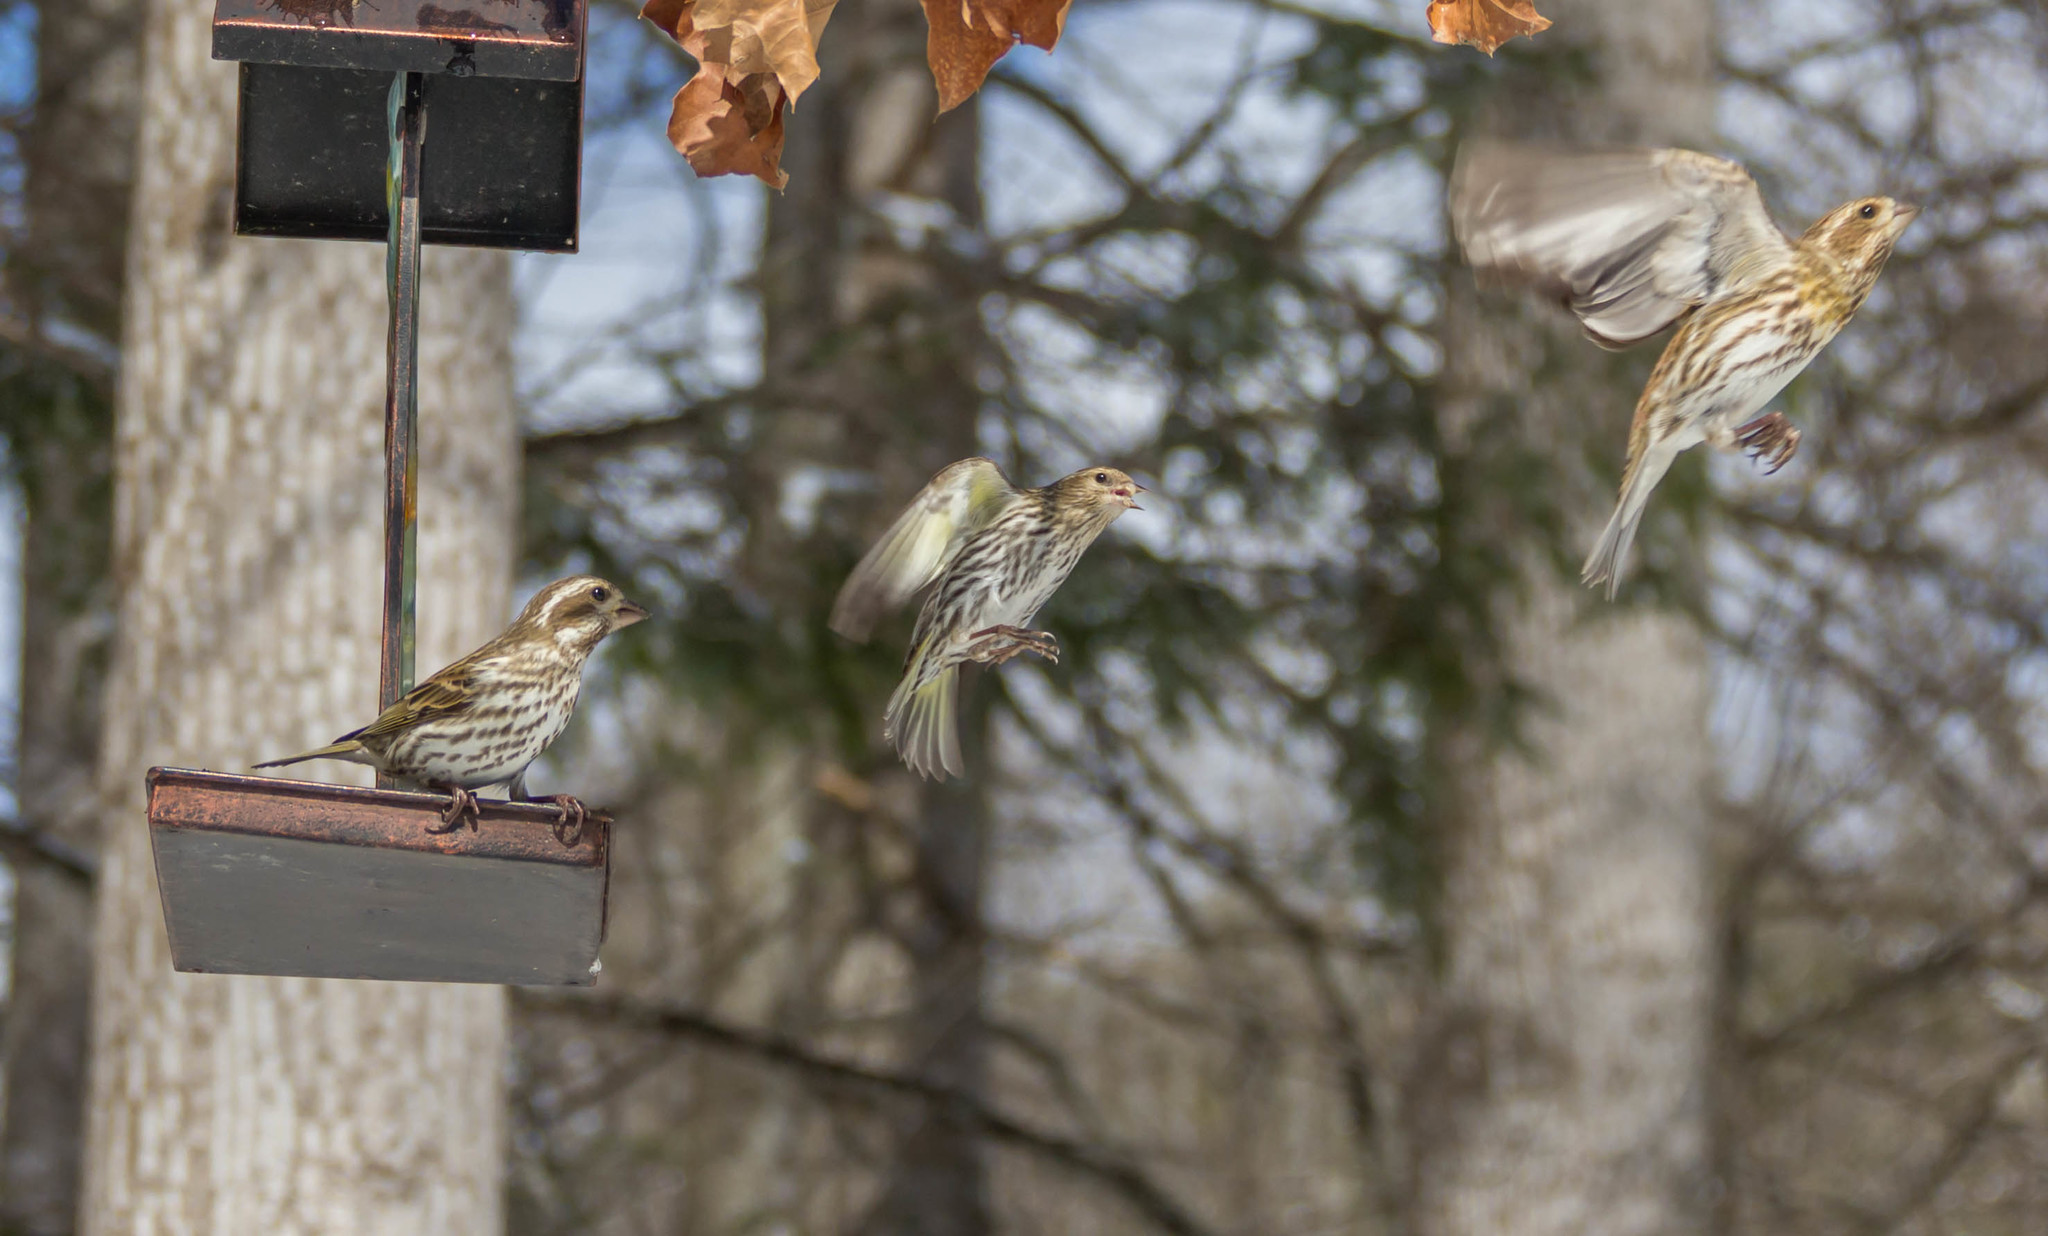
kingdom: Animalia
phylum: Chordata
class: Aves
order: Passeriformes
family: Fringillidae
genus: Spinus
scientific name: Spinus pinus
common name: Pine siskin
